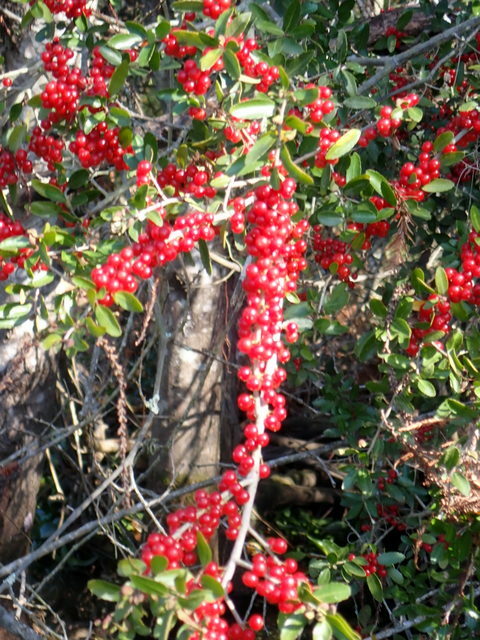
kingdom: Plantae
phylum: Tracheophyta
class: Magnoliopsida
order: Aquifoliales
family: Aquifoliaceae
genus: Ilex
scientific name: Ilex vomitoria
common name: Yaupon holly
